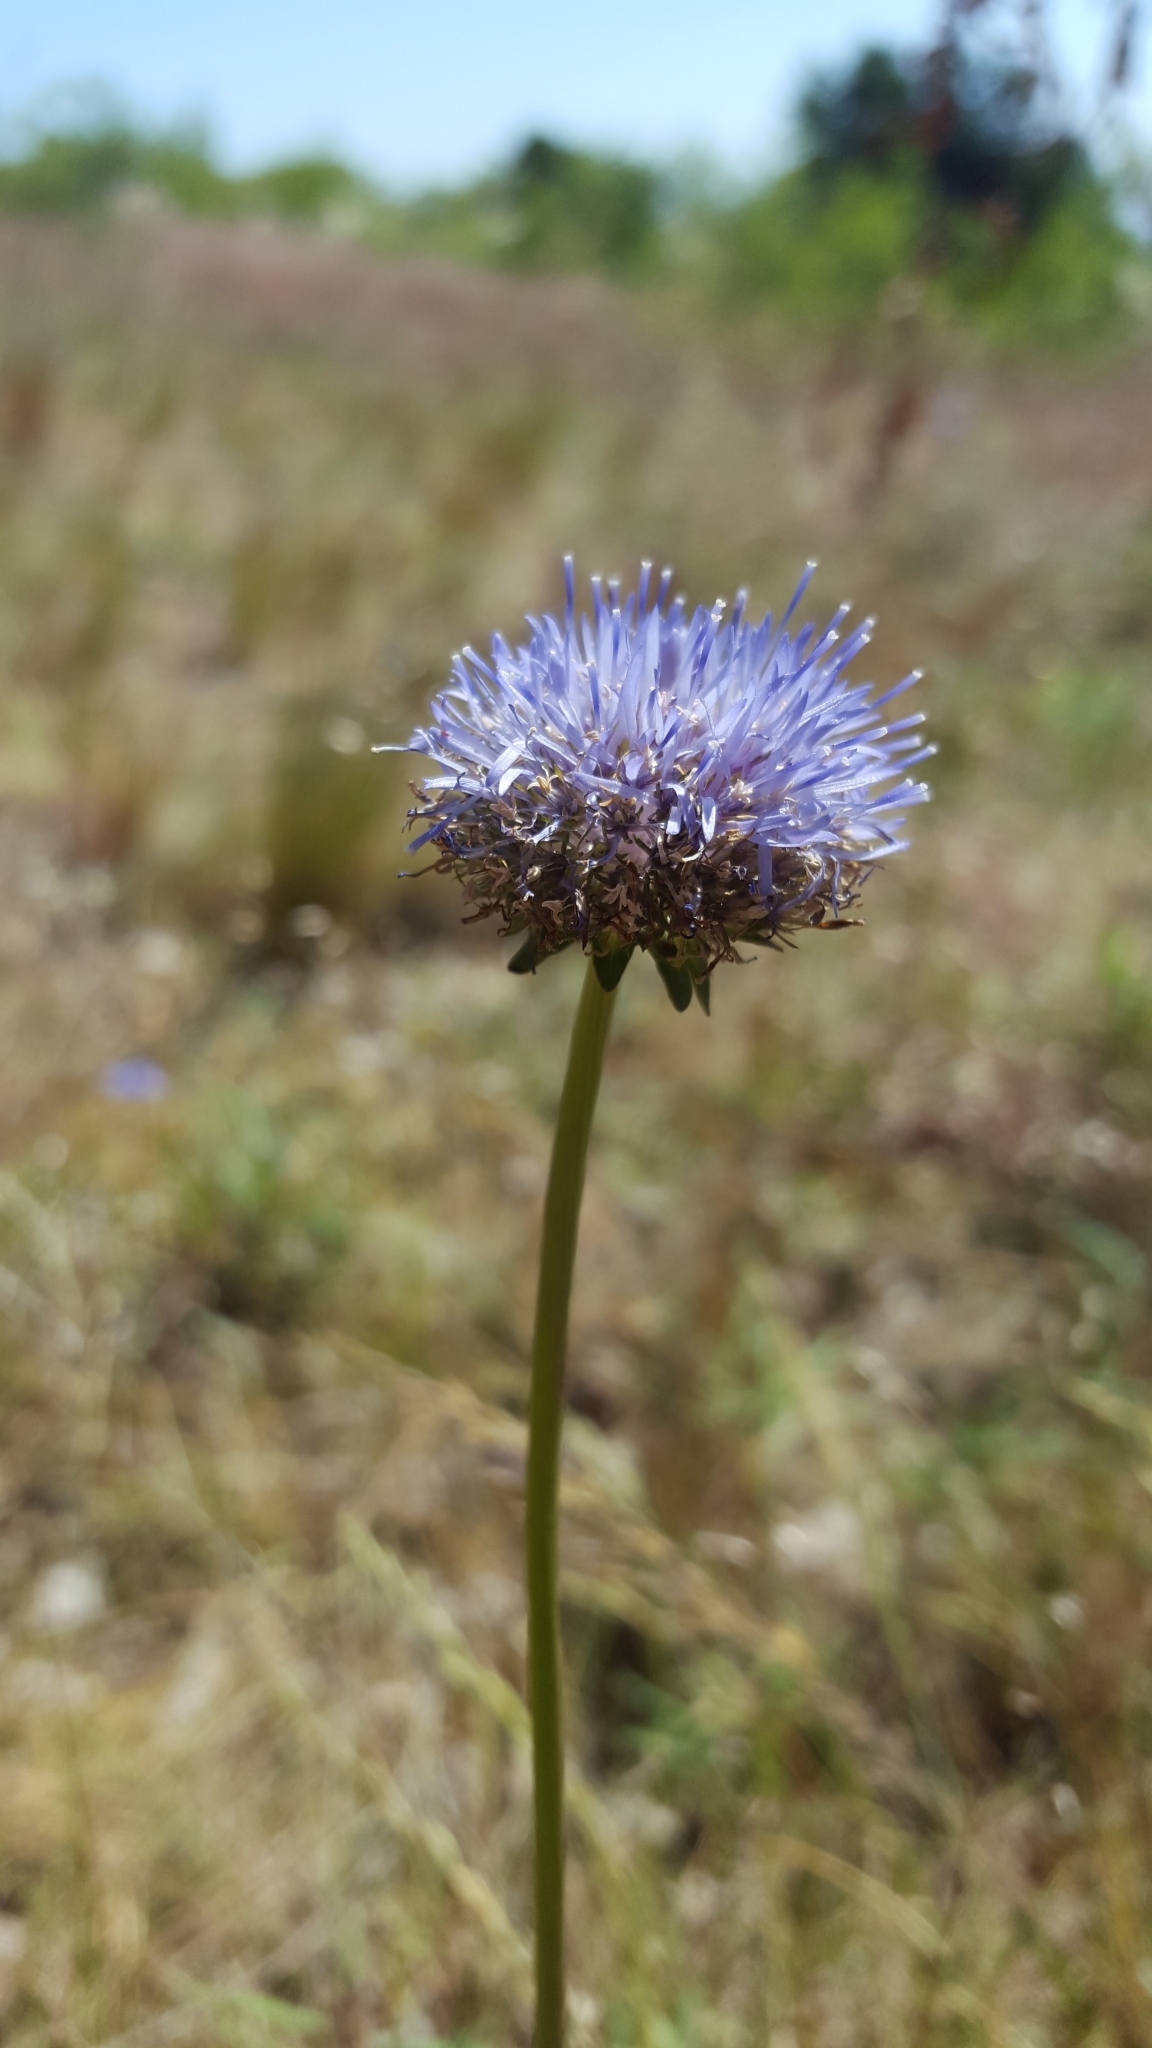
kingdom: Plantae
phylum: Tracheophyta
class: Magnoliopsida
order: Asterales
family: Campanulaceae
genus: Jasione
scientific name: Jasione montana
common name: Sheep's-bit
